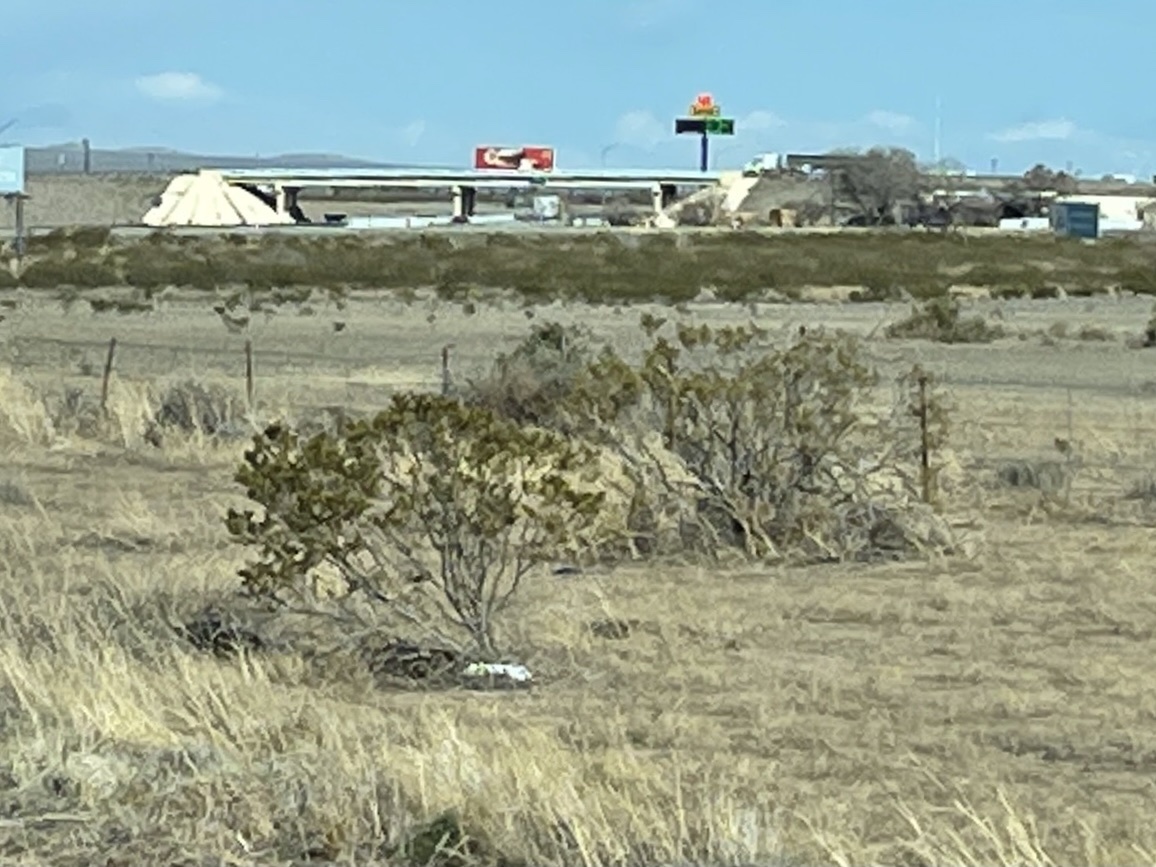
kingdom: Plantae
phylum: Tracheophyta
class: Magnoliopsida
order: Zygophyllales
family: Zygophyllaceae
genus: Larrea
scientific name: Larrea tridentata
